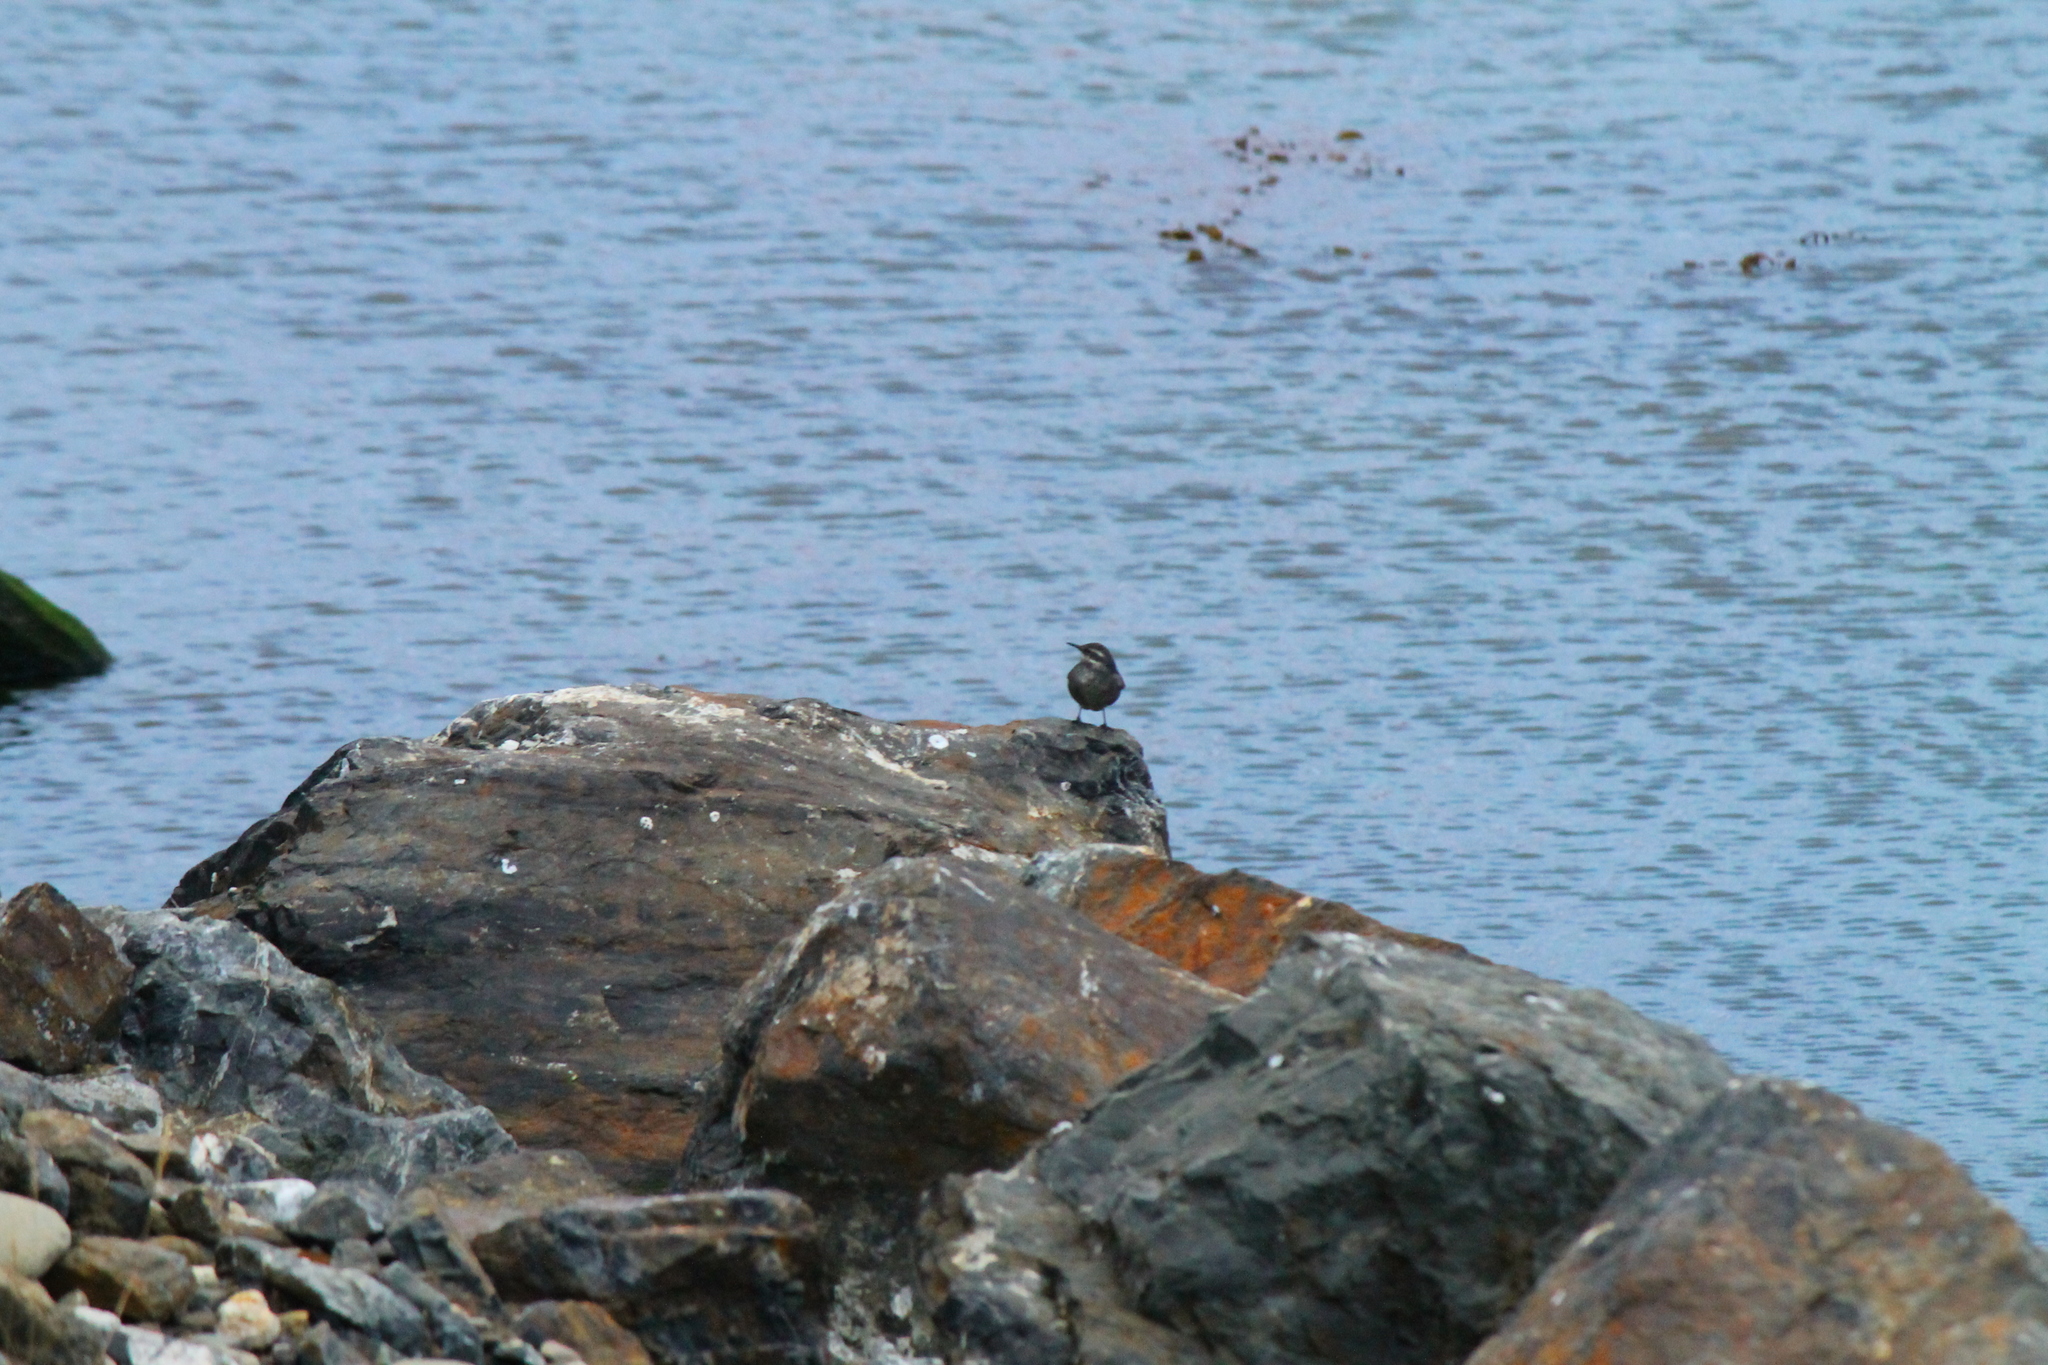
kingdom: Animalia
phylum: Chordata
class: Aves
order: Passeriformes
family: Furnariidae
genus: Cinclodes
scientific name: Cinclodes patagonicus
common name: Dark-bellied cinclodes
